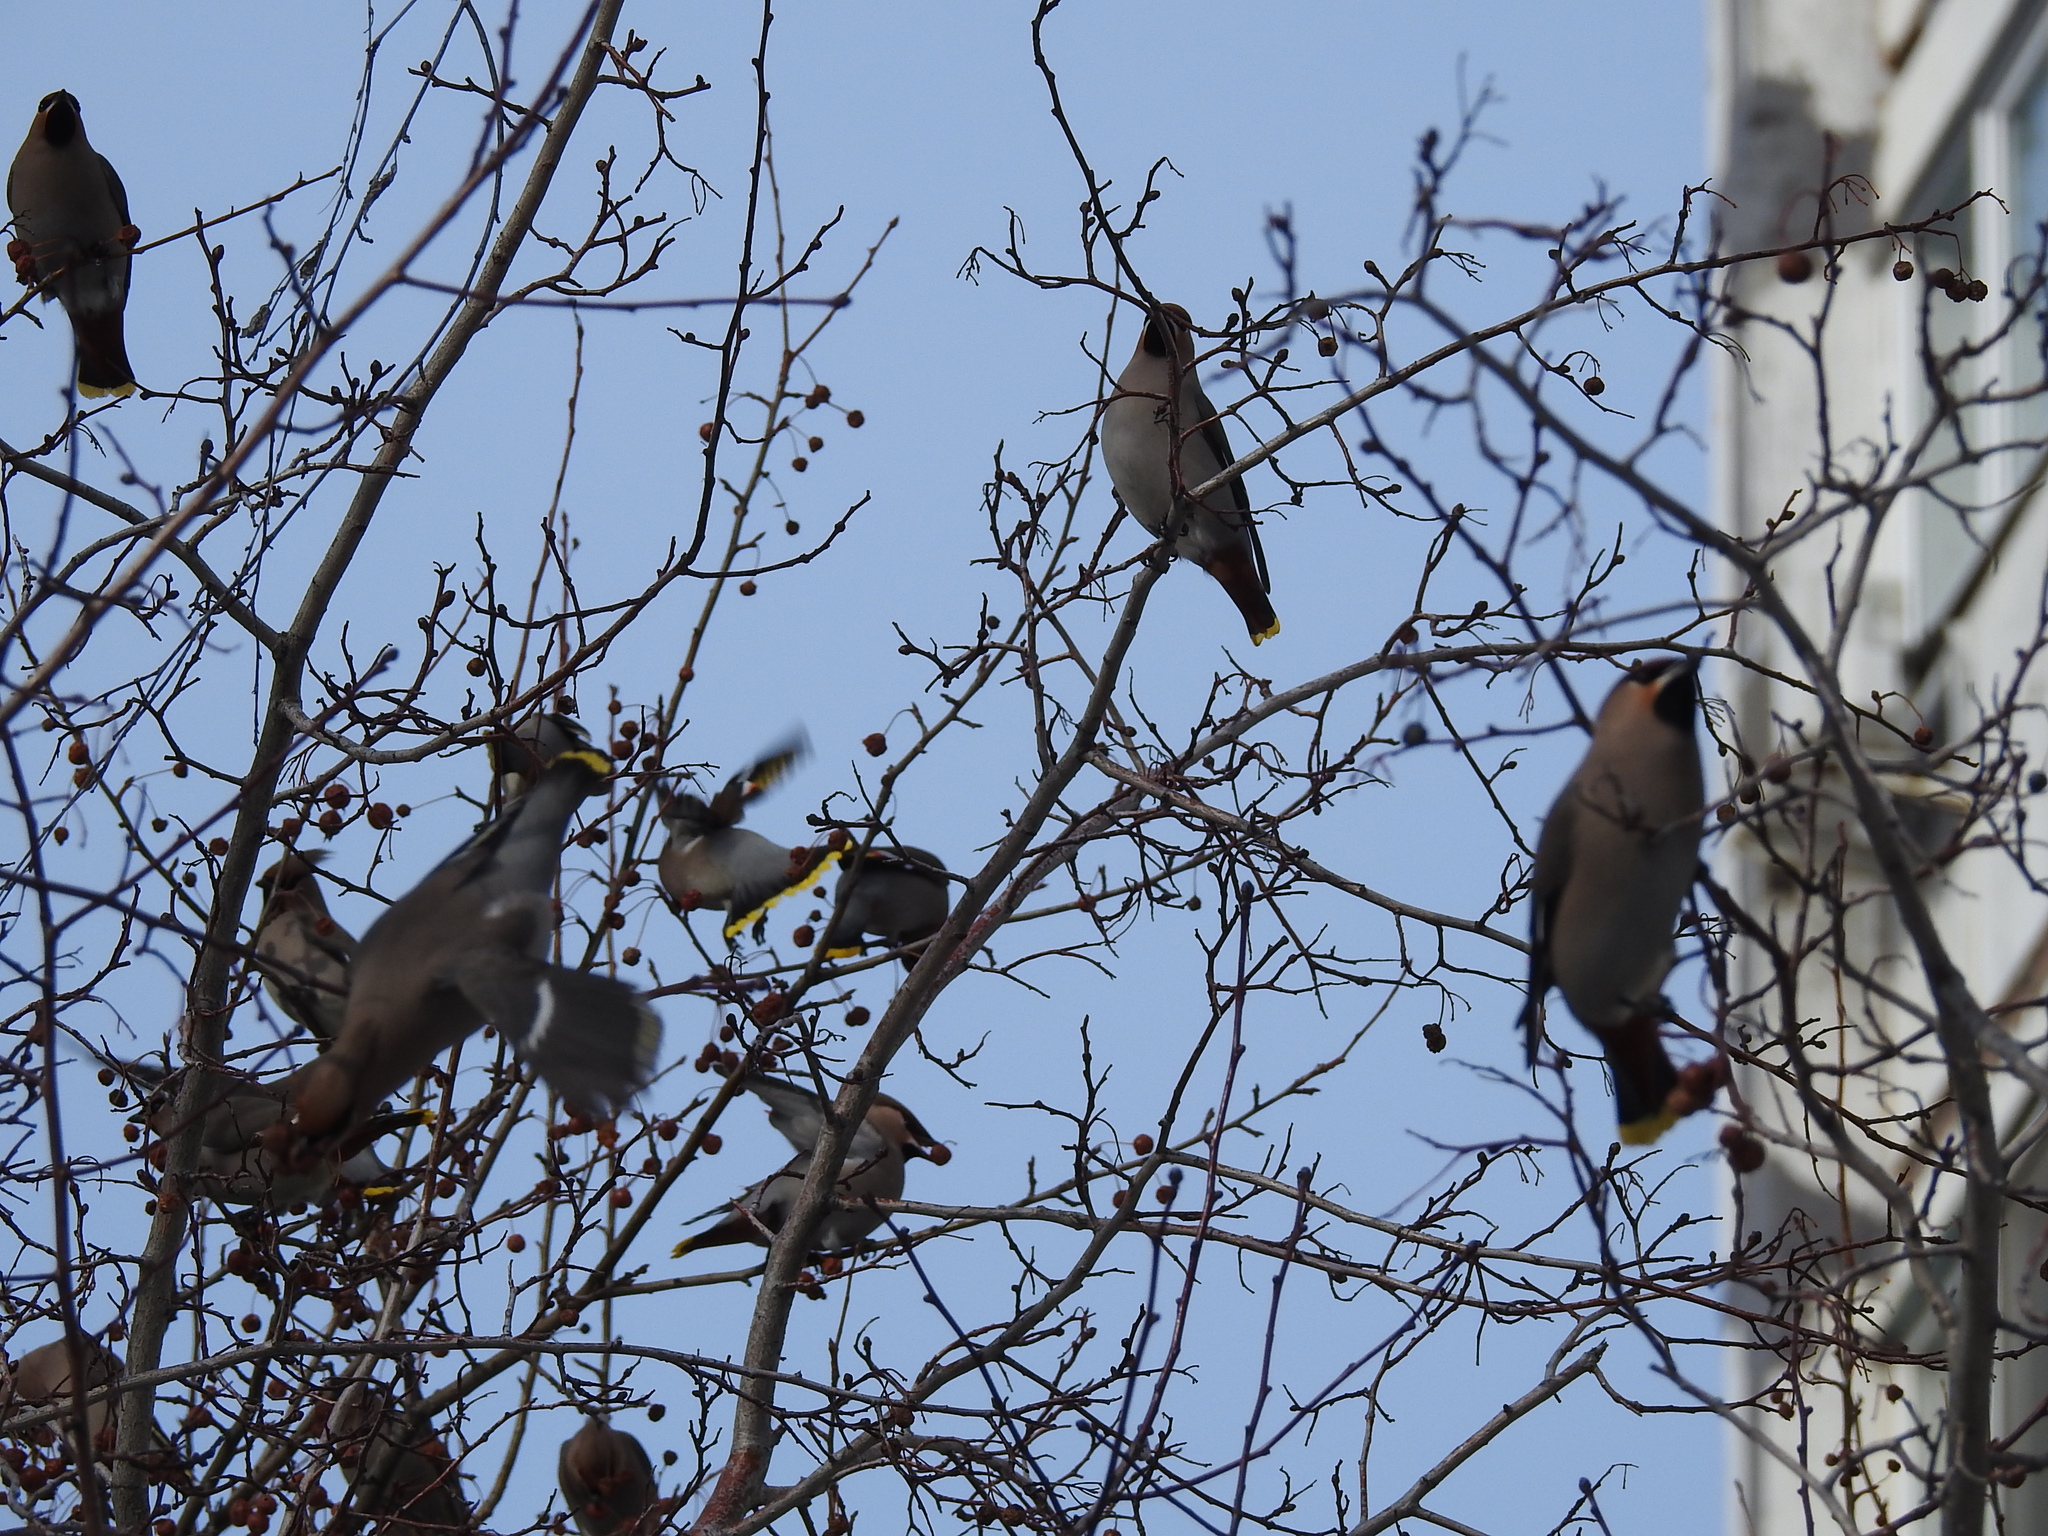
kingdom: Animalia
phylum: Chordata
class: Aves
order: Passeriformes
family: Bombycillidae
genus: Bombycilla
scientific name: Bombycilla garrulus
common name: Bohemian waxwing
